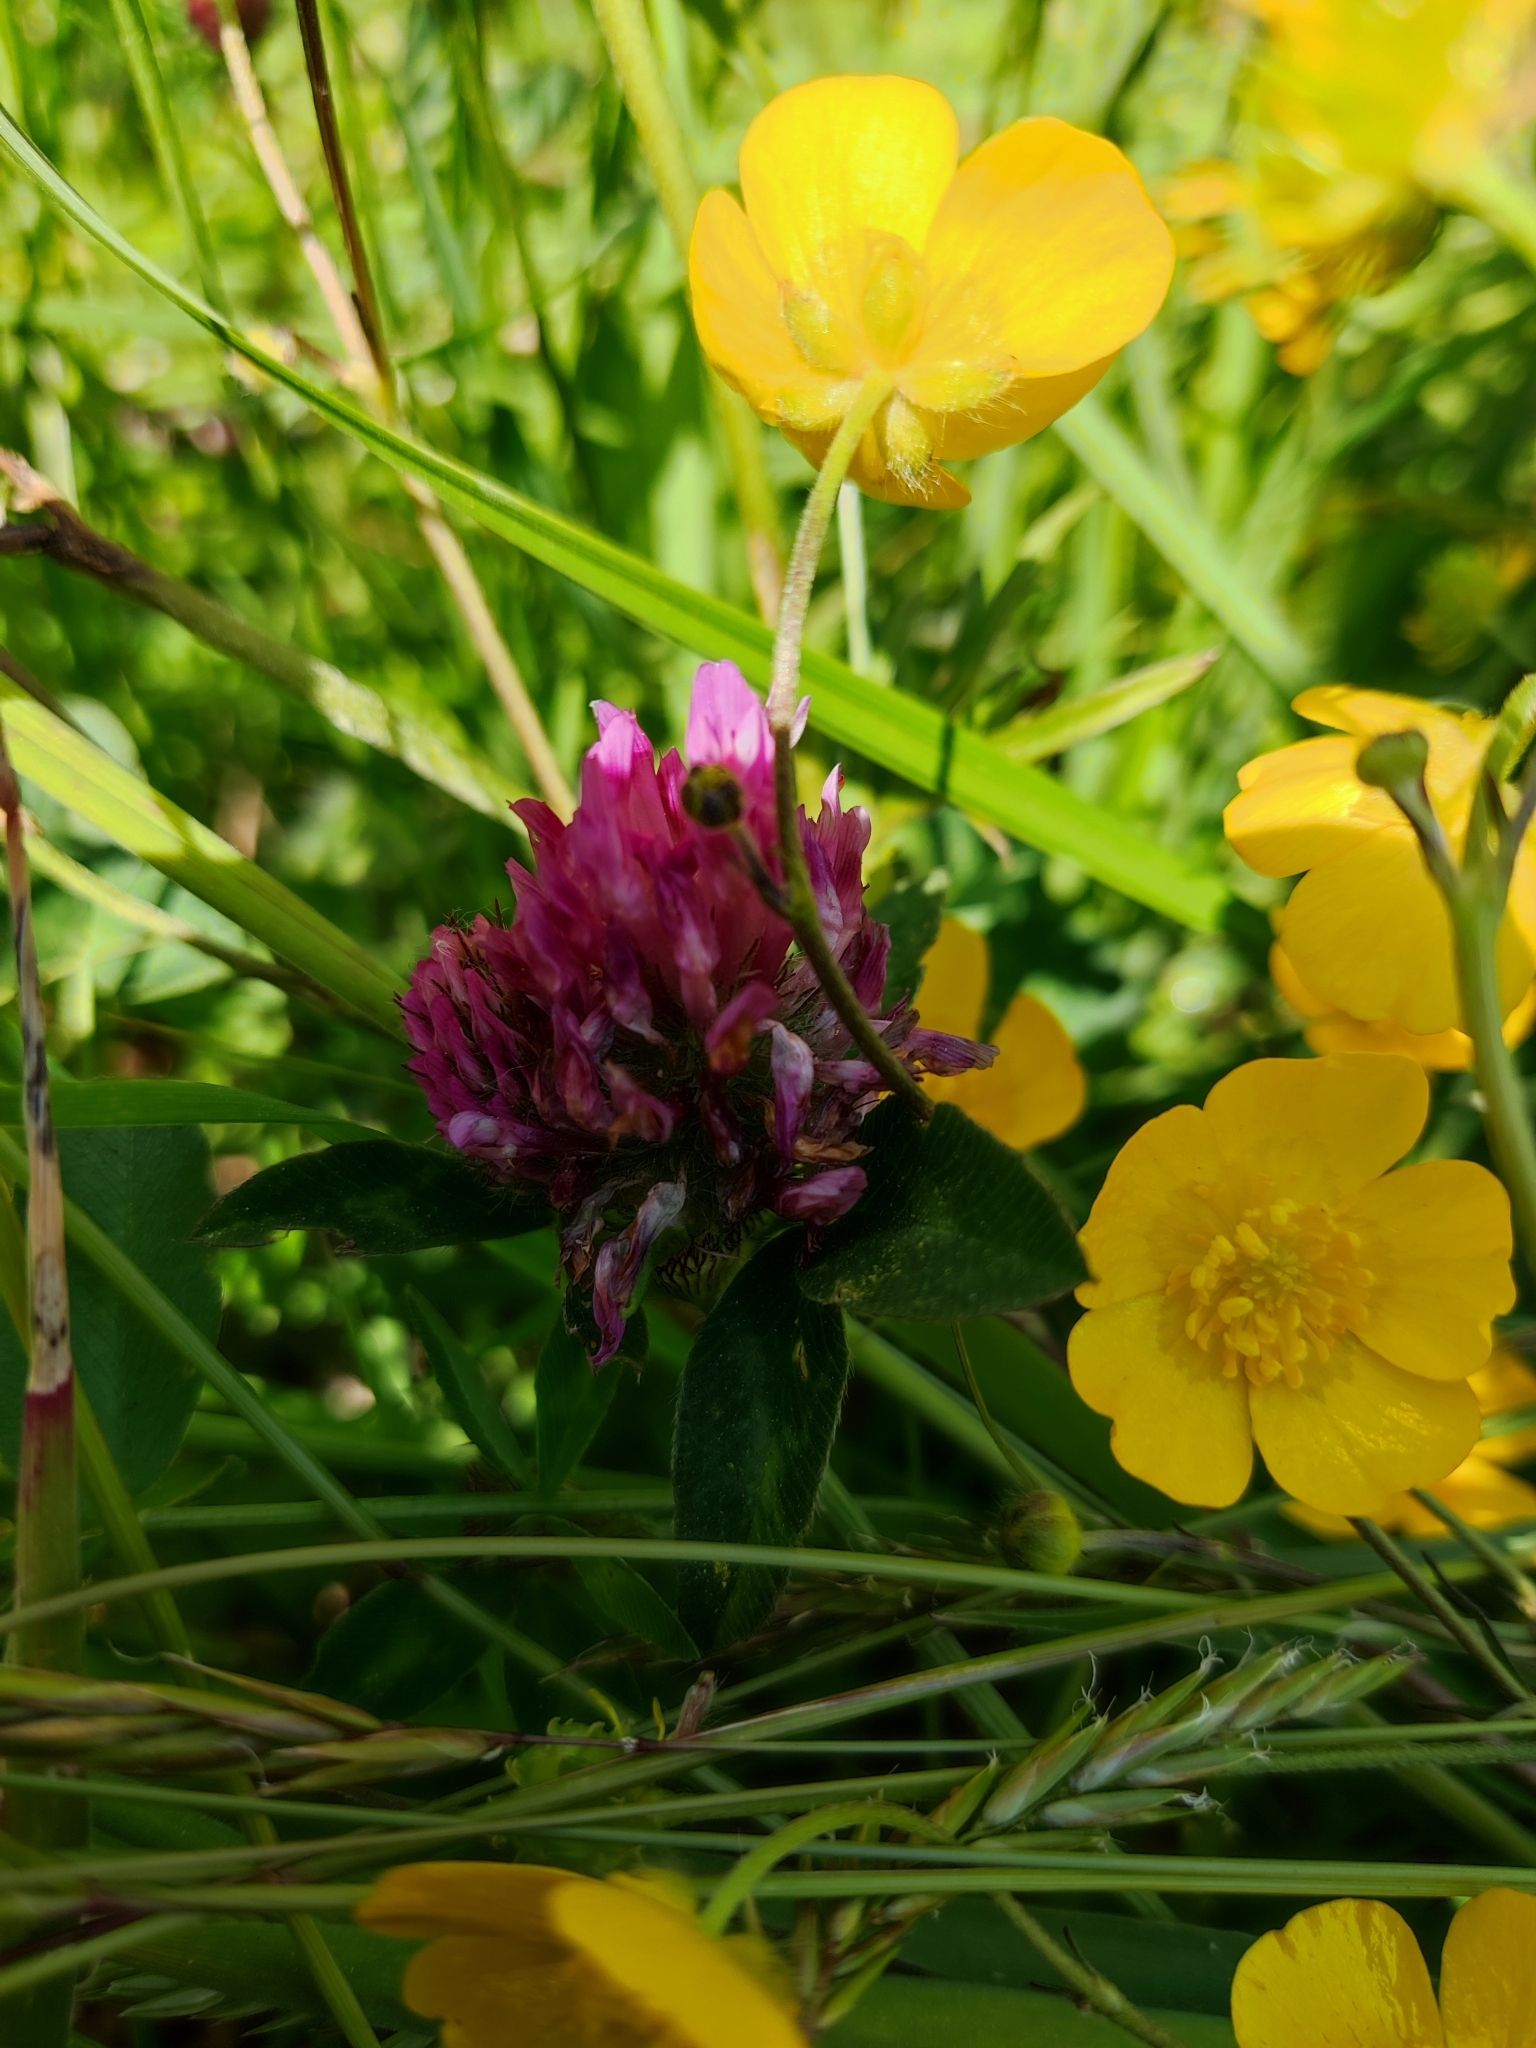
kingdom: Plantae
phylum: Tracheophyta
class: Magnoliopsida
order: Fabales
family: Fabaceae
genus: Trifolium
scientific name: Trifolium pratense
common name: Red clover
